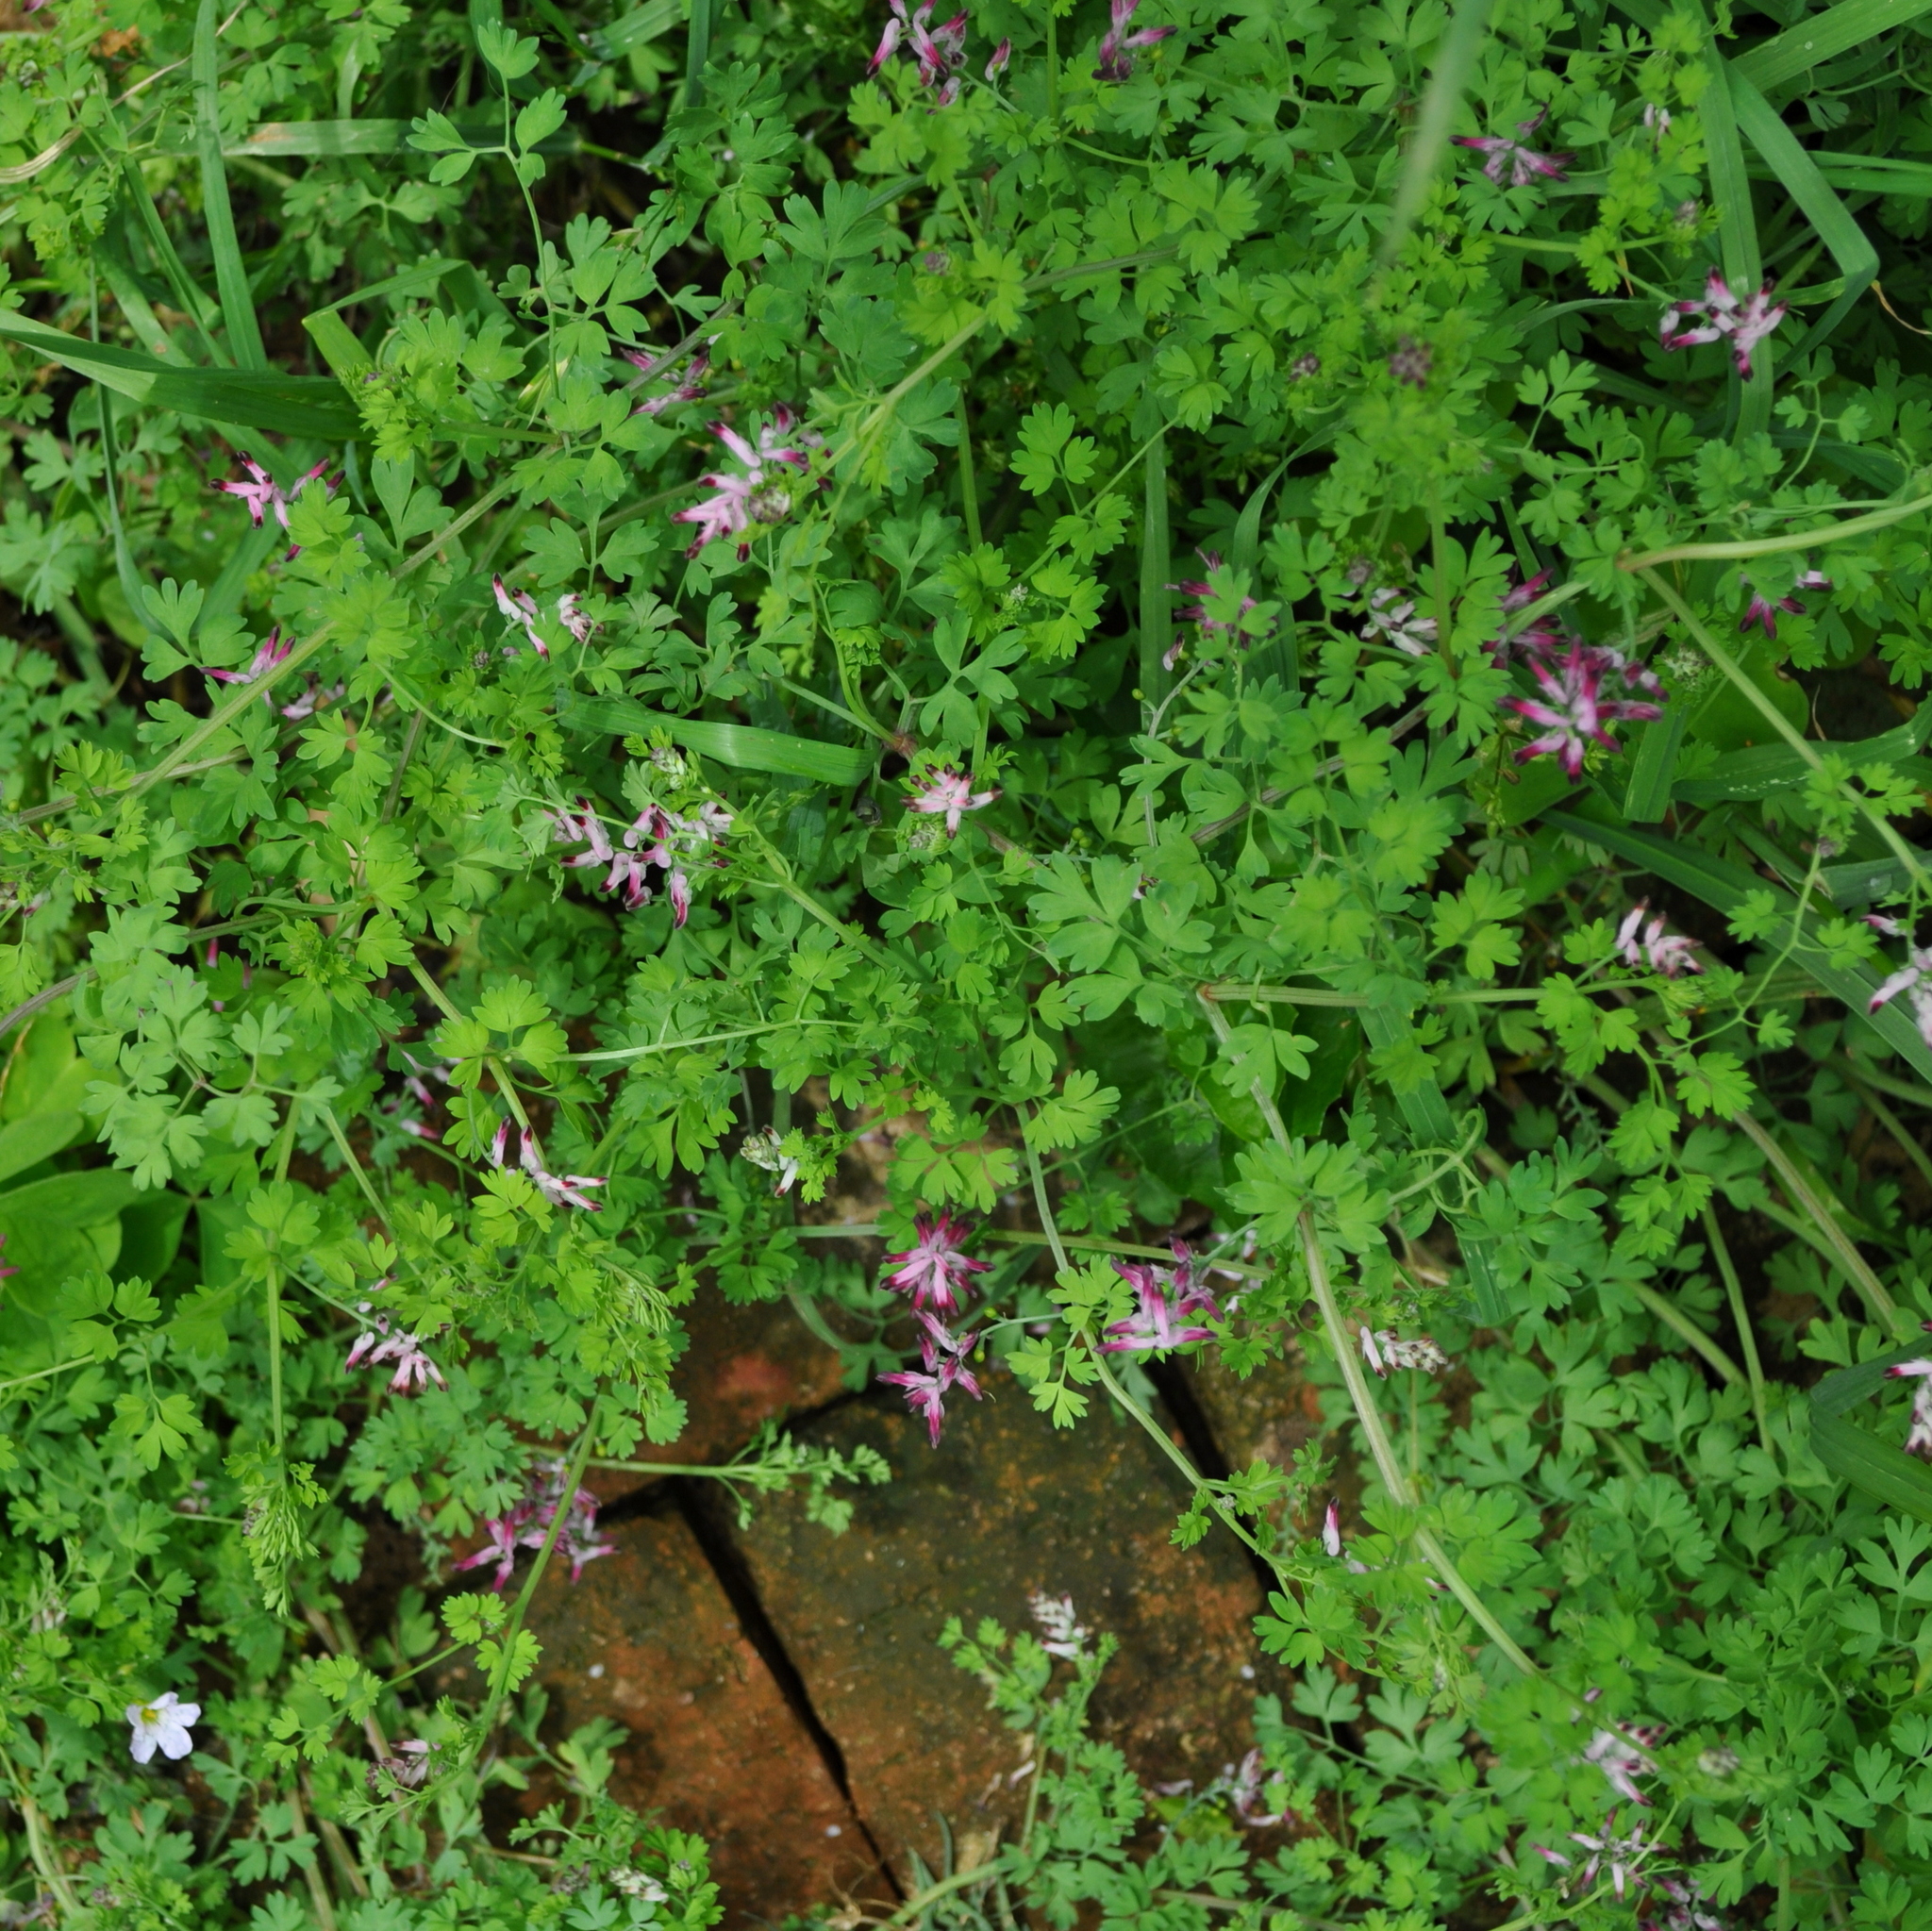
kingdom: Plantae
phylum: Tracheophyta
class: Magnoliopsida
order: Ranunculales
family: Papaveraceae
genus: Fumaria
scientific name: Fumaria muralis
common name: Common ramping-fumitory
